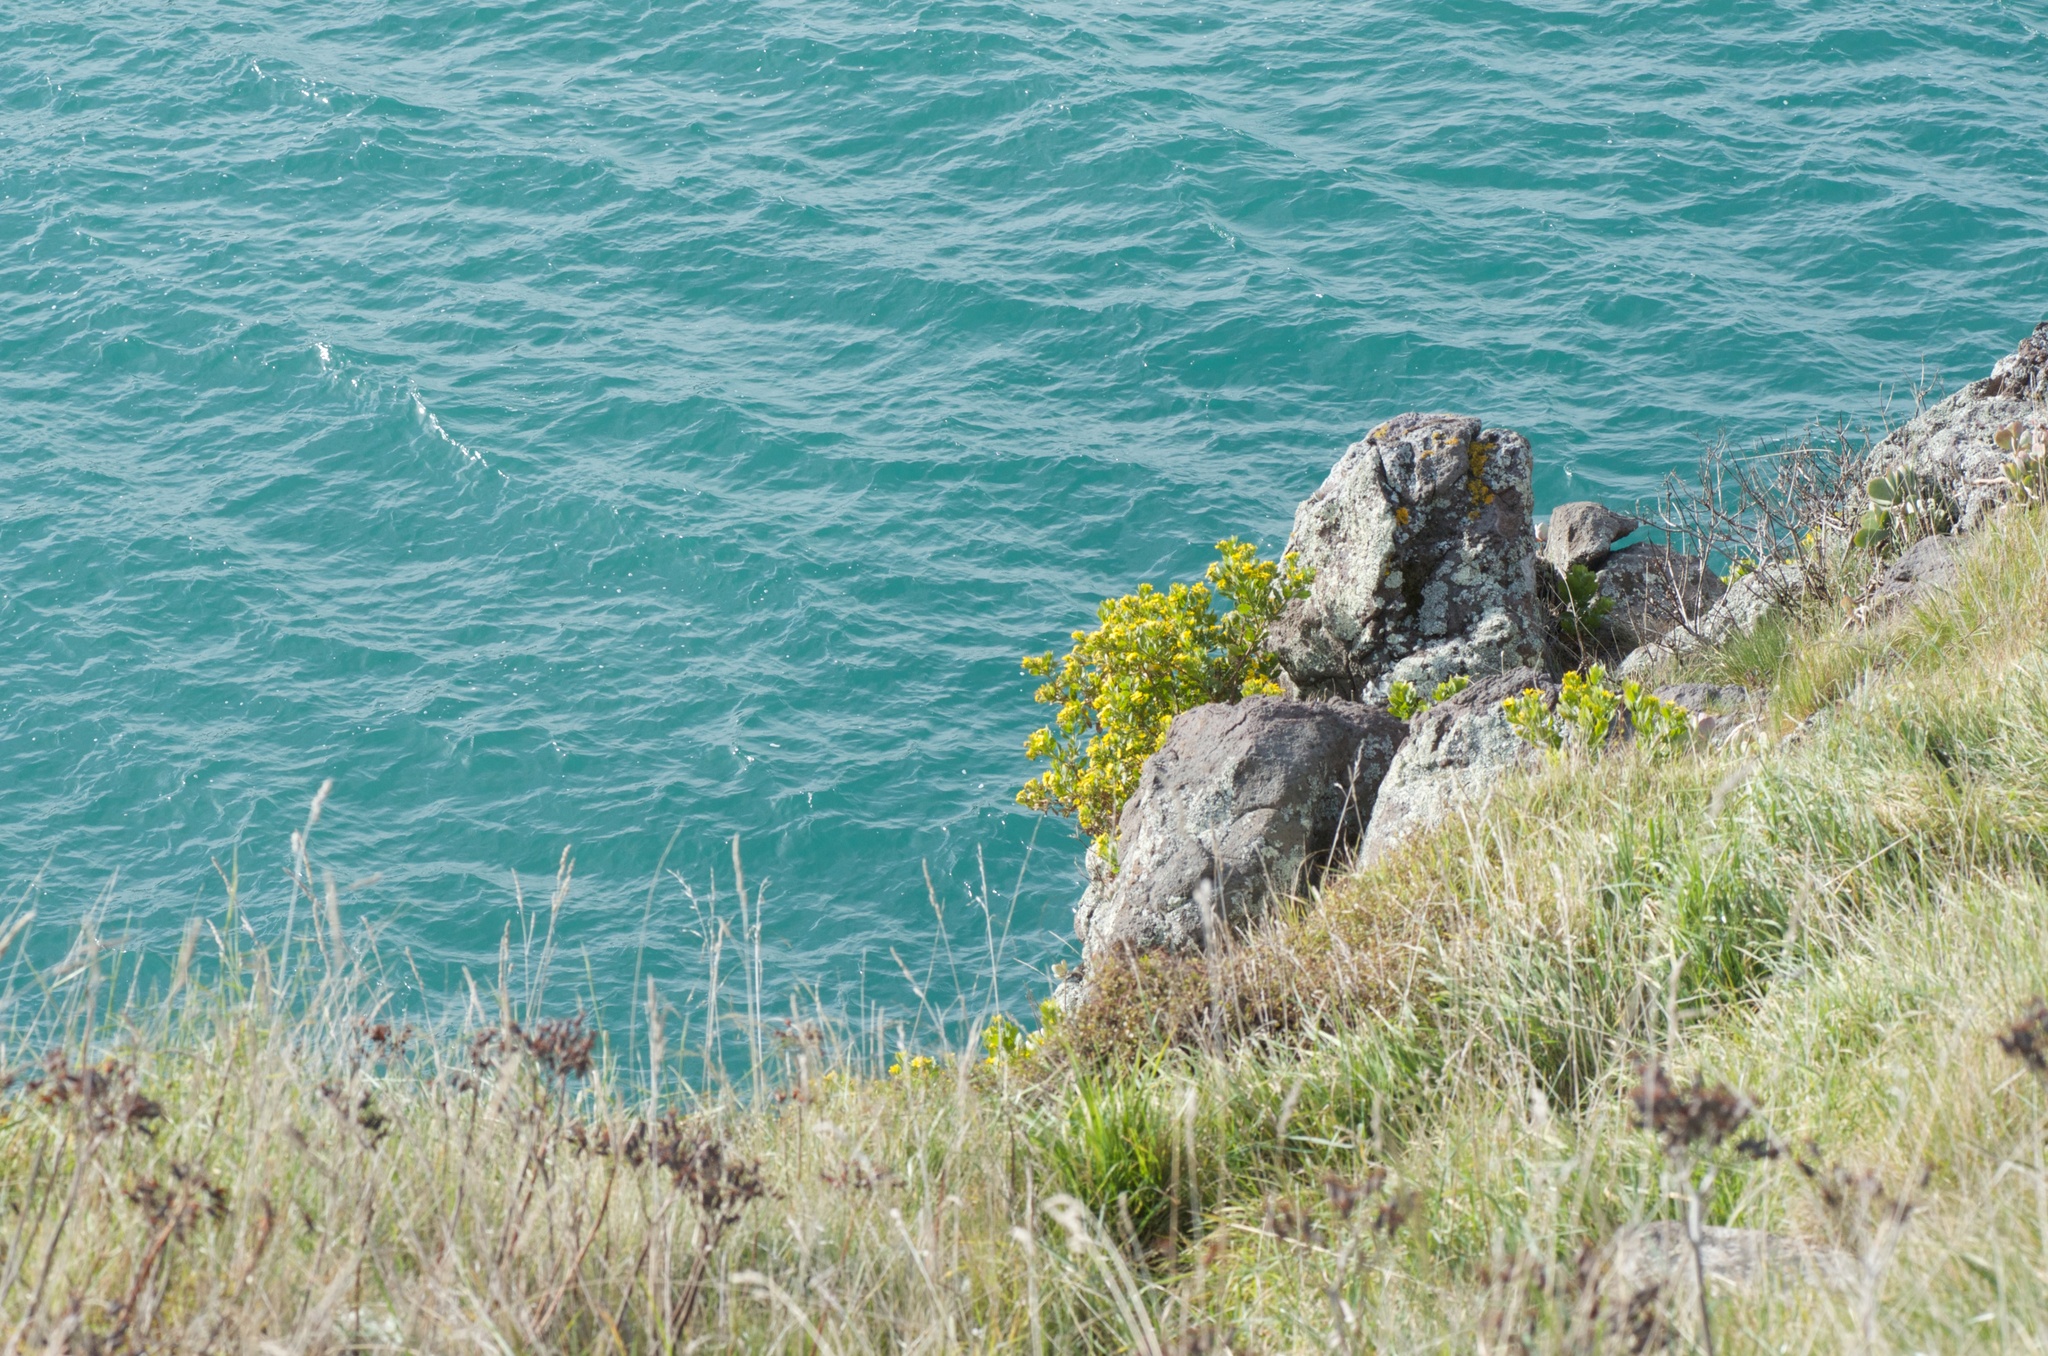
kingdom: Plantae
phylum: Tracheophyta
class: Magnoliopsida
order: Asterales
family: Asteraceae
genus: Osteospermum
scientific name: Osteospermum moniliferum
